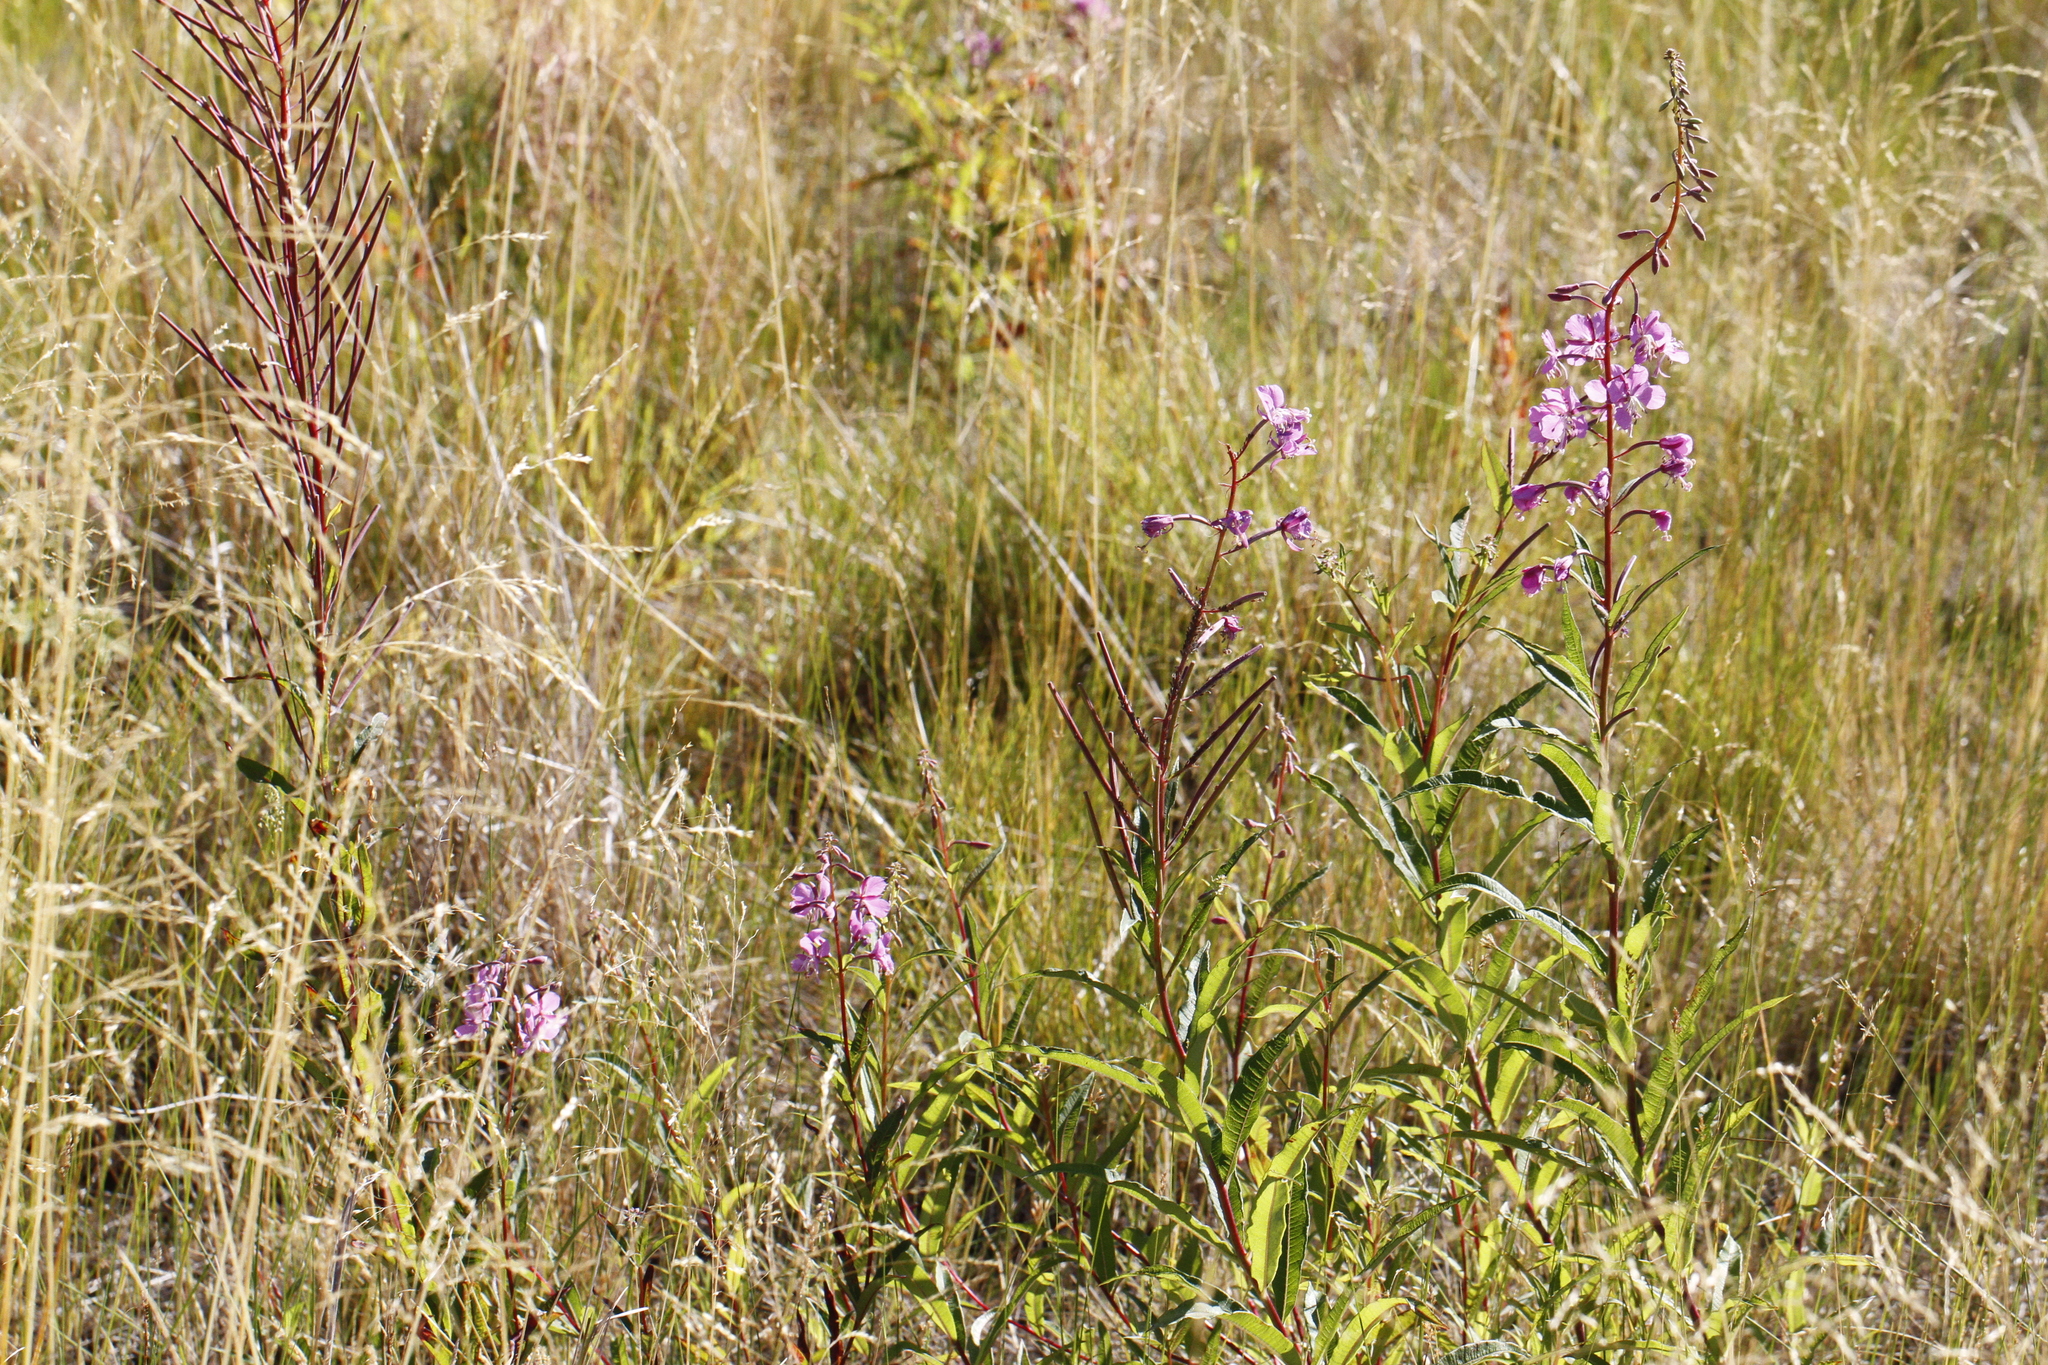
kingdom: Plantae
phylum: Tracheophyta
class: Magnoliopsida
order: Myrtales
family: Onagraceae
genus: Chamaenerion
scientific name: Chamaenerion angustifolium
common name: Fireweed
